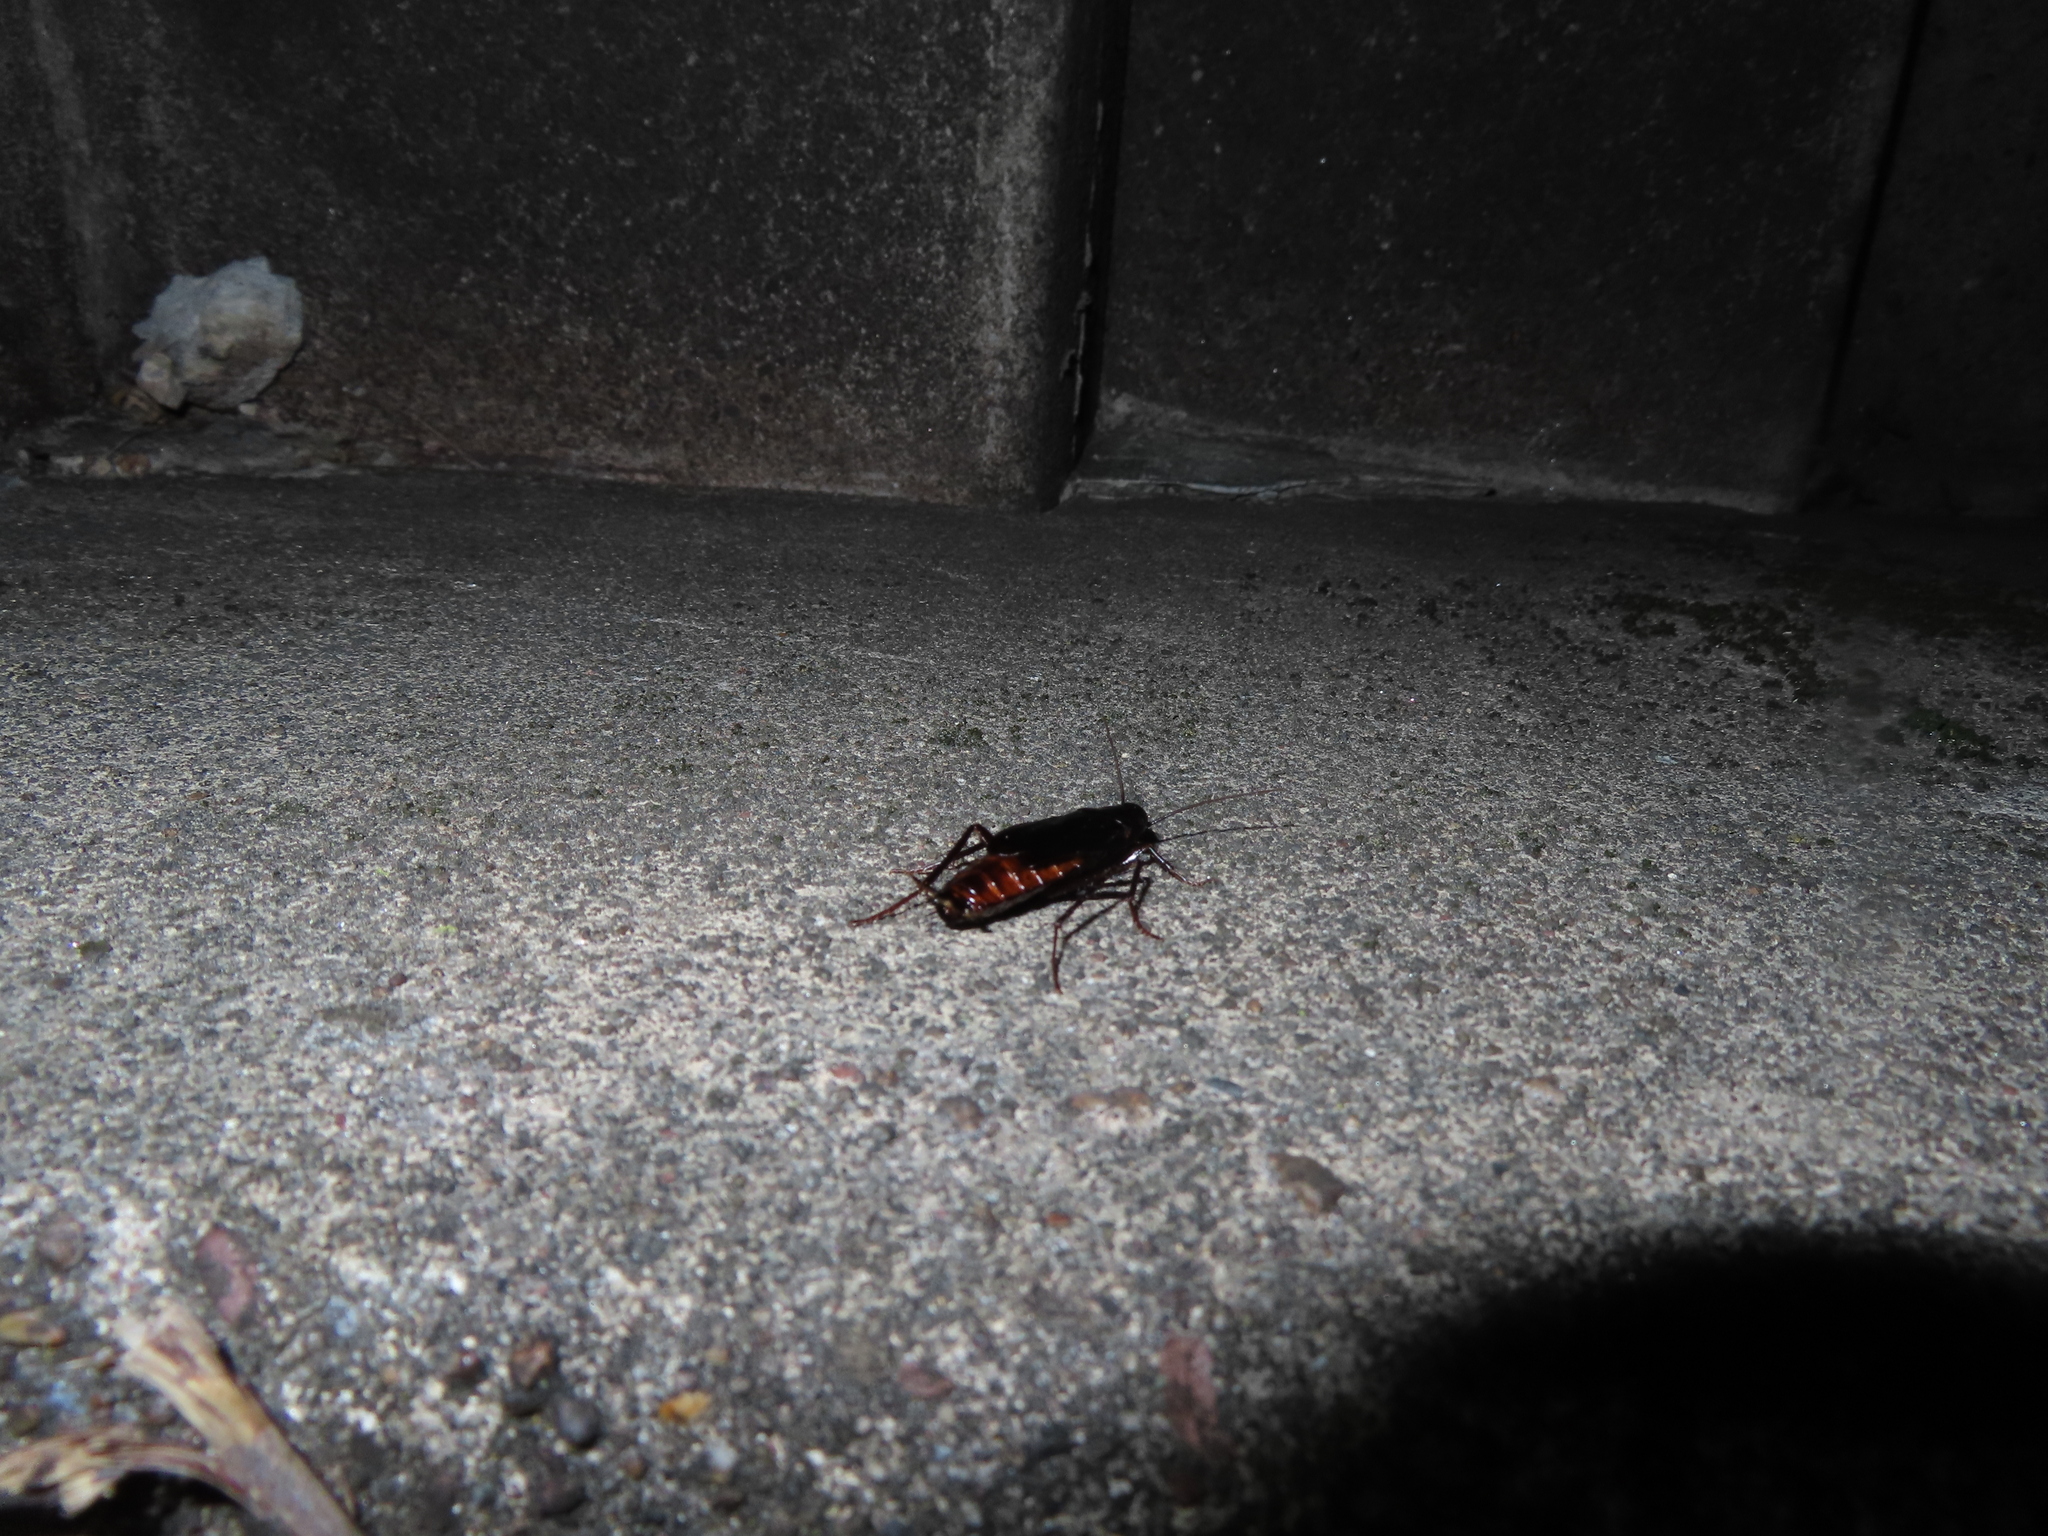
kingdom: Animalia
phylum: Arthropoda
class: Insecta
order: Blattodea
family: Blattidae
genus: Blatta
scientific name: Blatta orientalis
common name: Oriental cockroach
